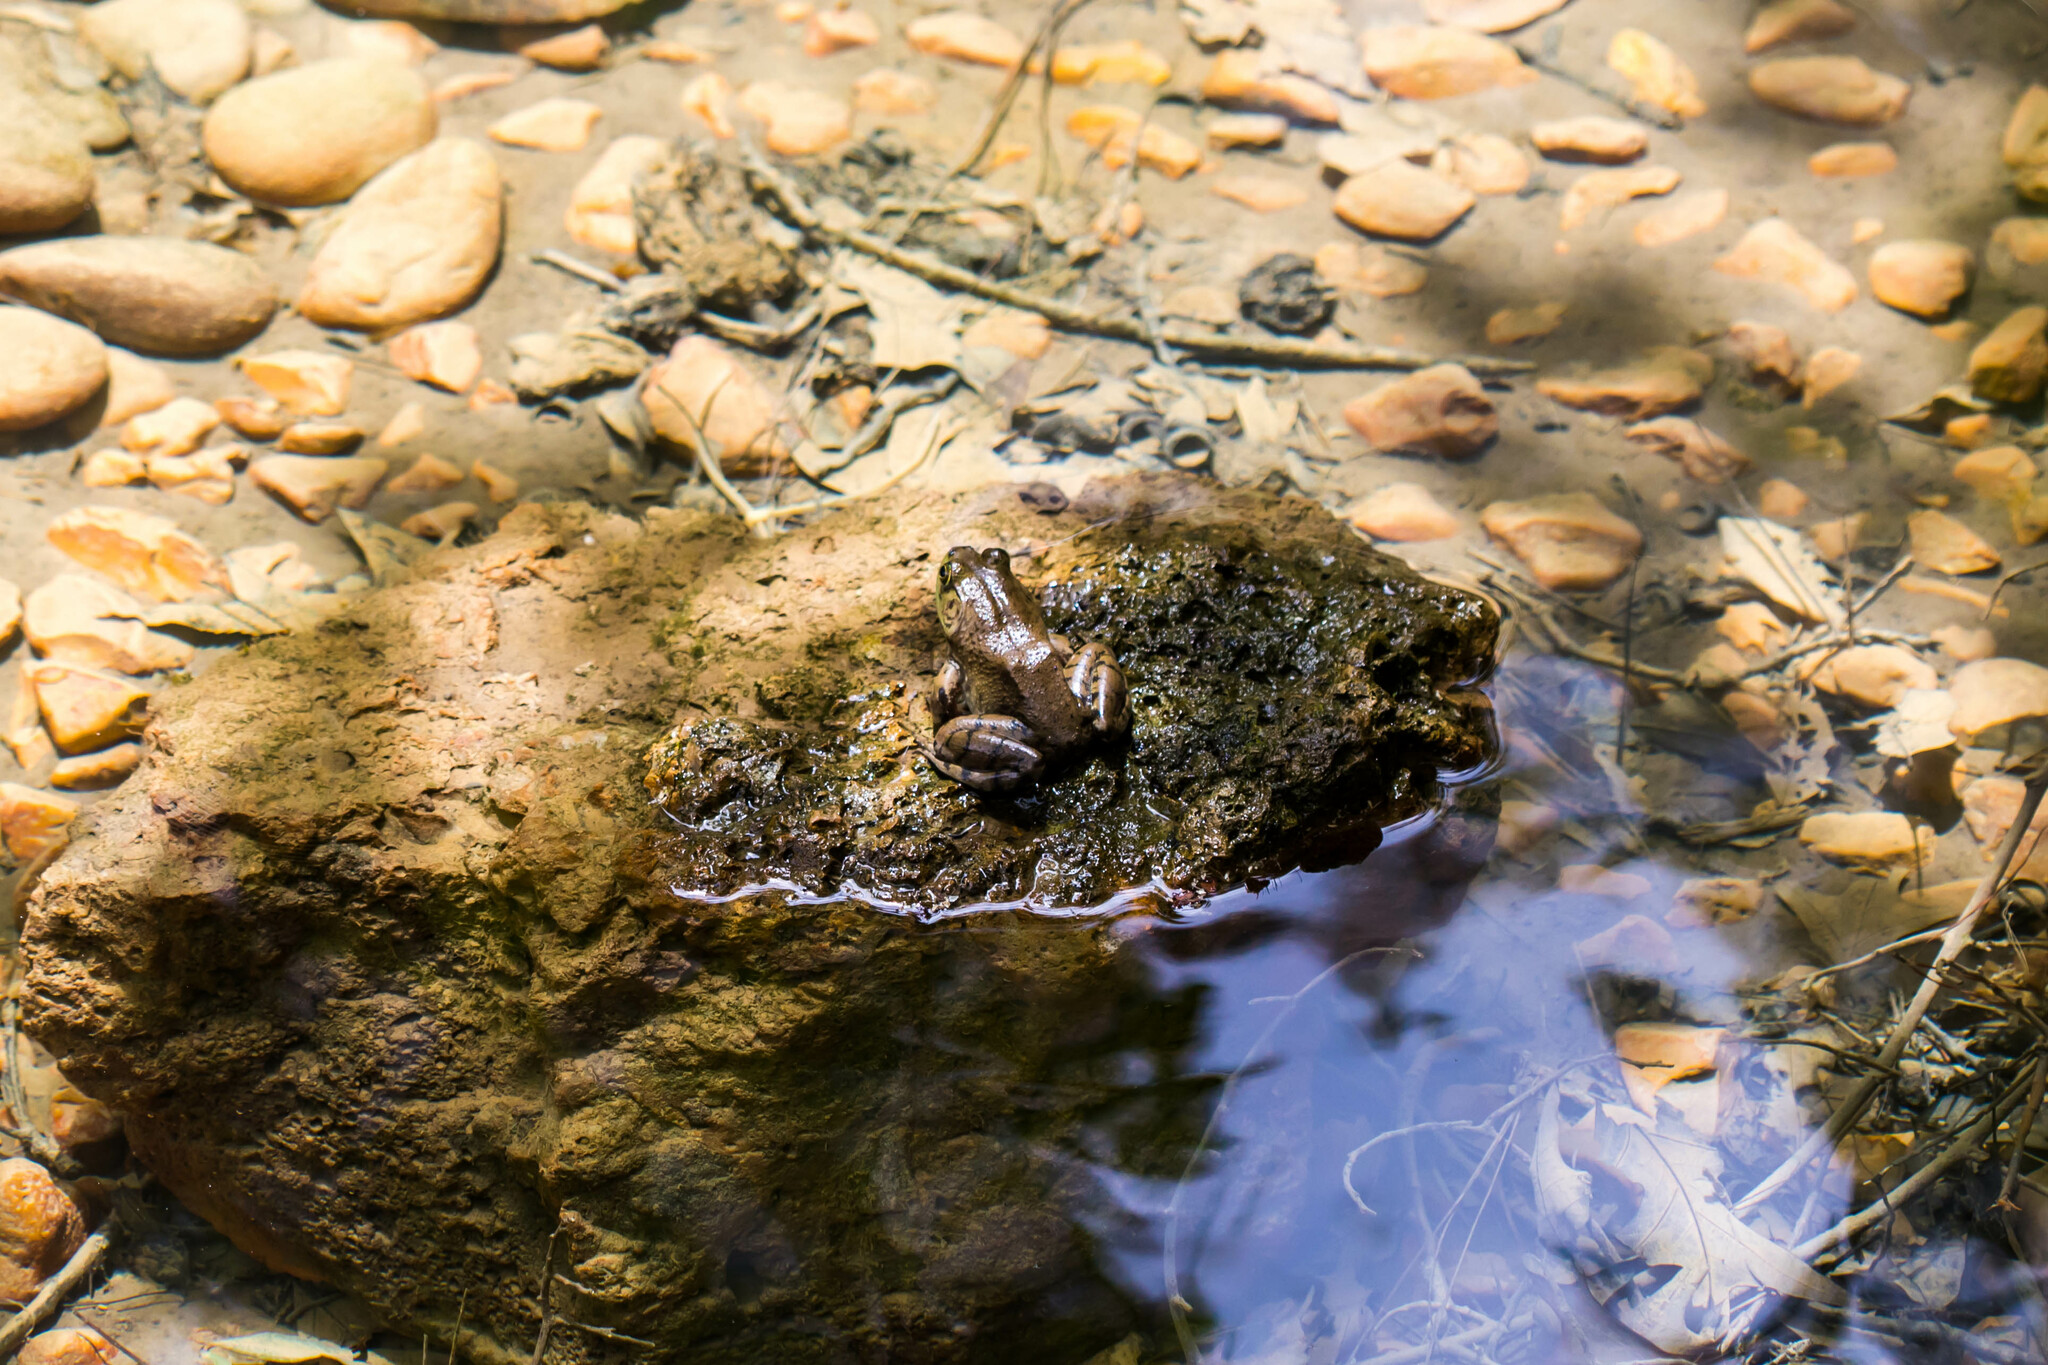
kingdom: Animalia
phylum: Chordata
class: Amphibia
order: Anura
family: Ranidae
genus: Lithobates
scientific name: Lithobates catesbeianus
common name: American bullfrog
